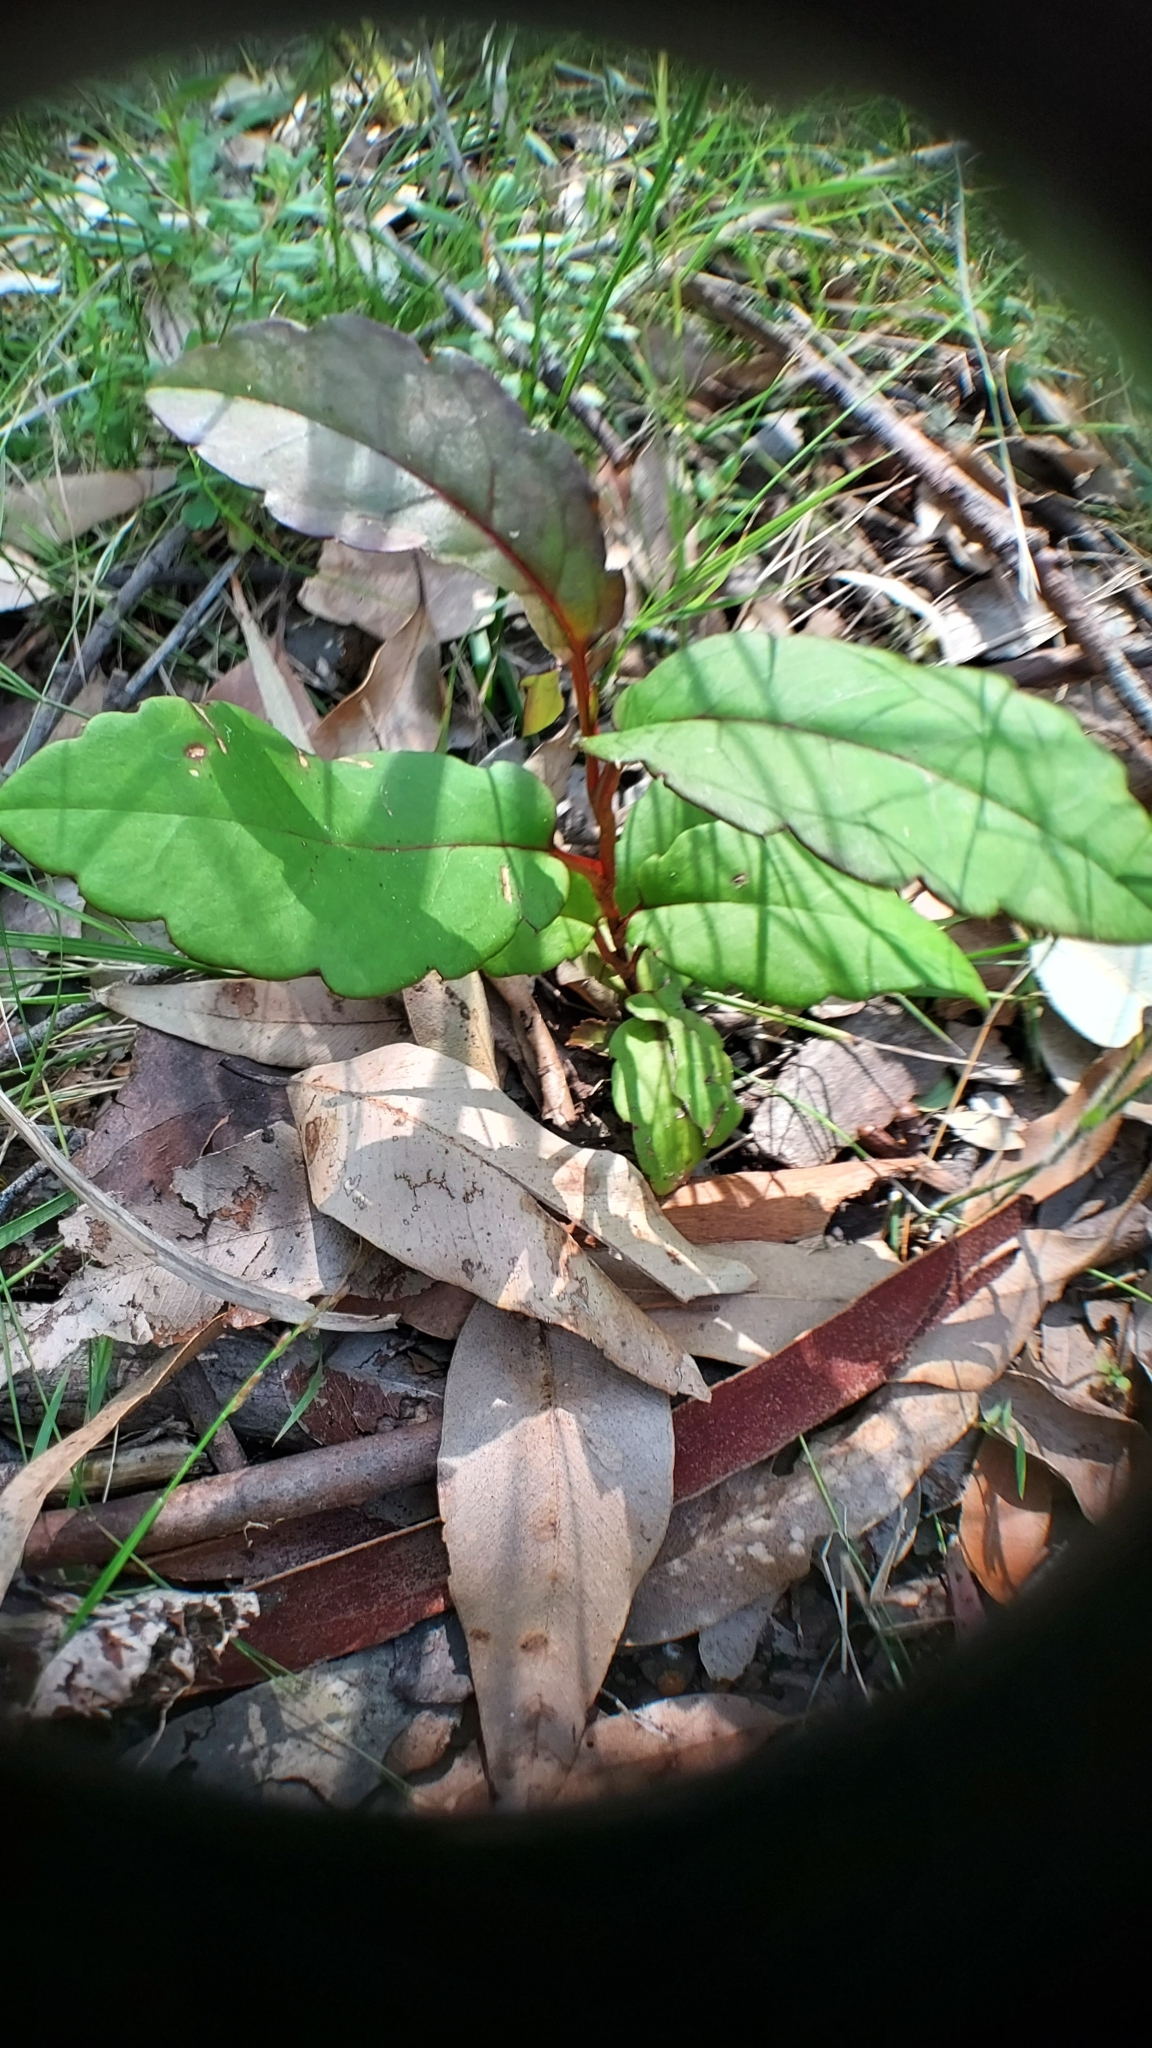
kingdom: Plantae
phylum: Tracheophyta
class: Magnoliopsida
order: Dilleniales
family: Dilleniaceae
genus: Hibbertia
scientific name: Hibbertia dentata
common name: Trailing guinea-flower
